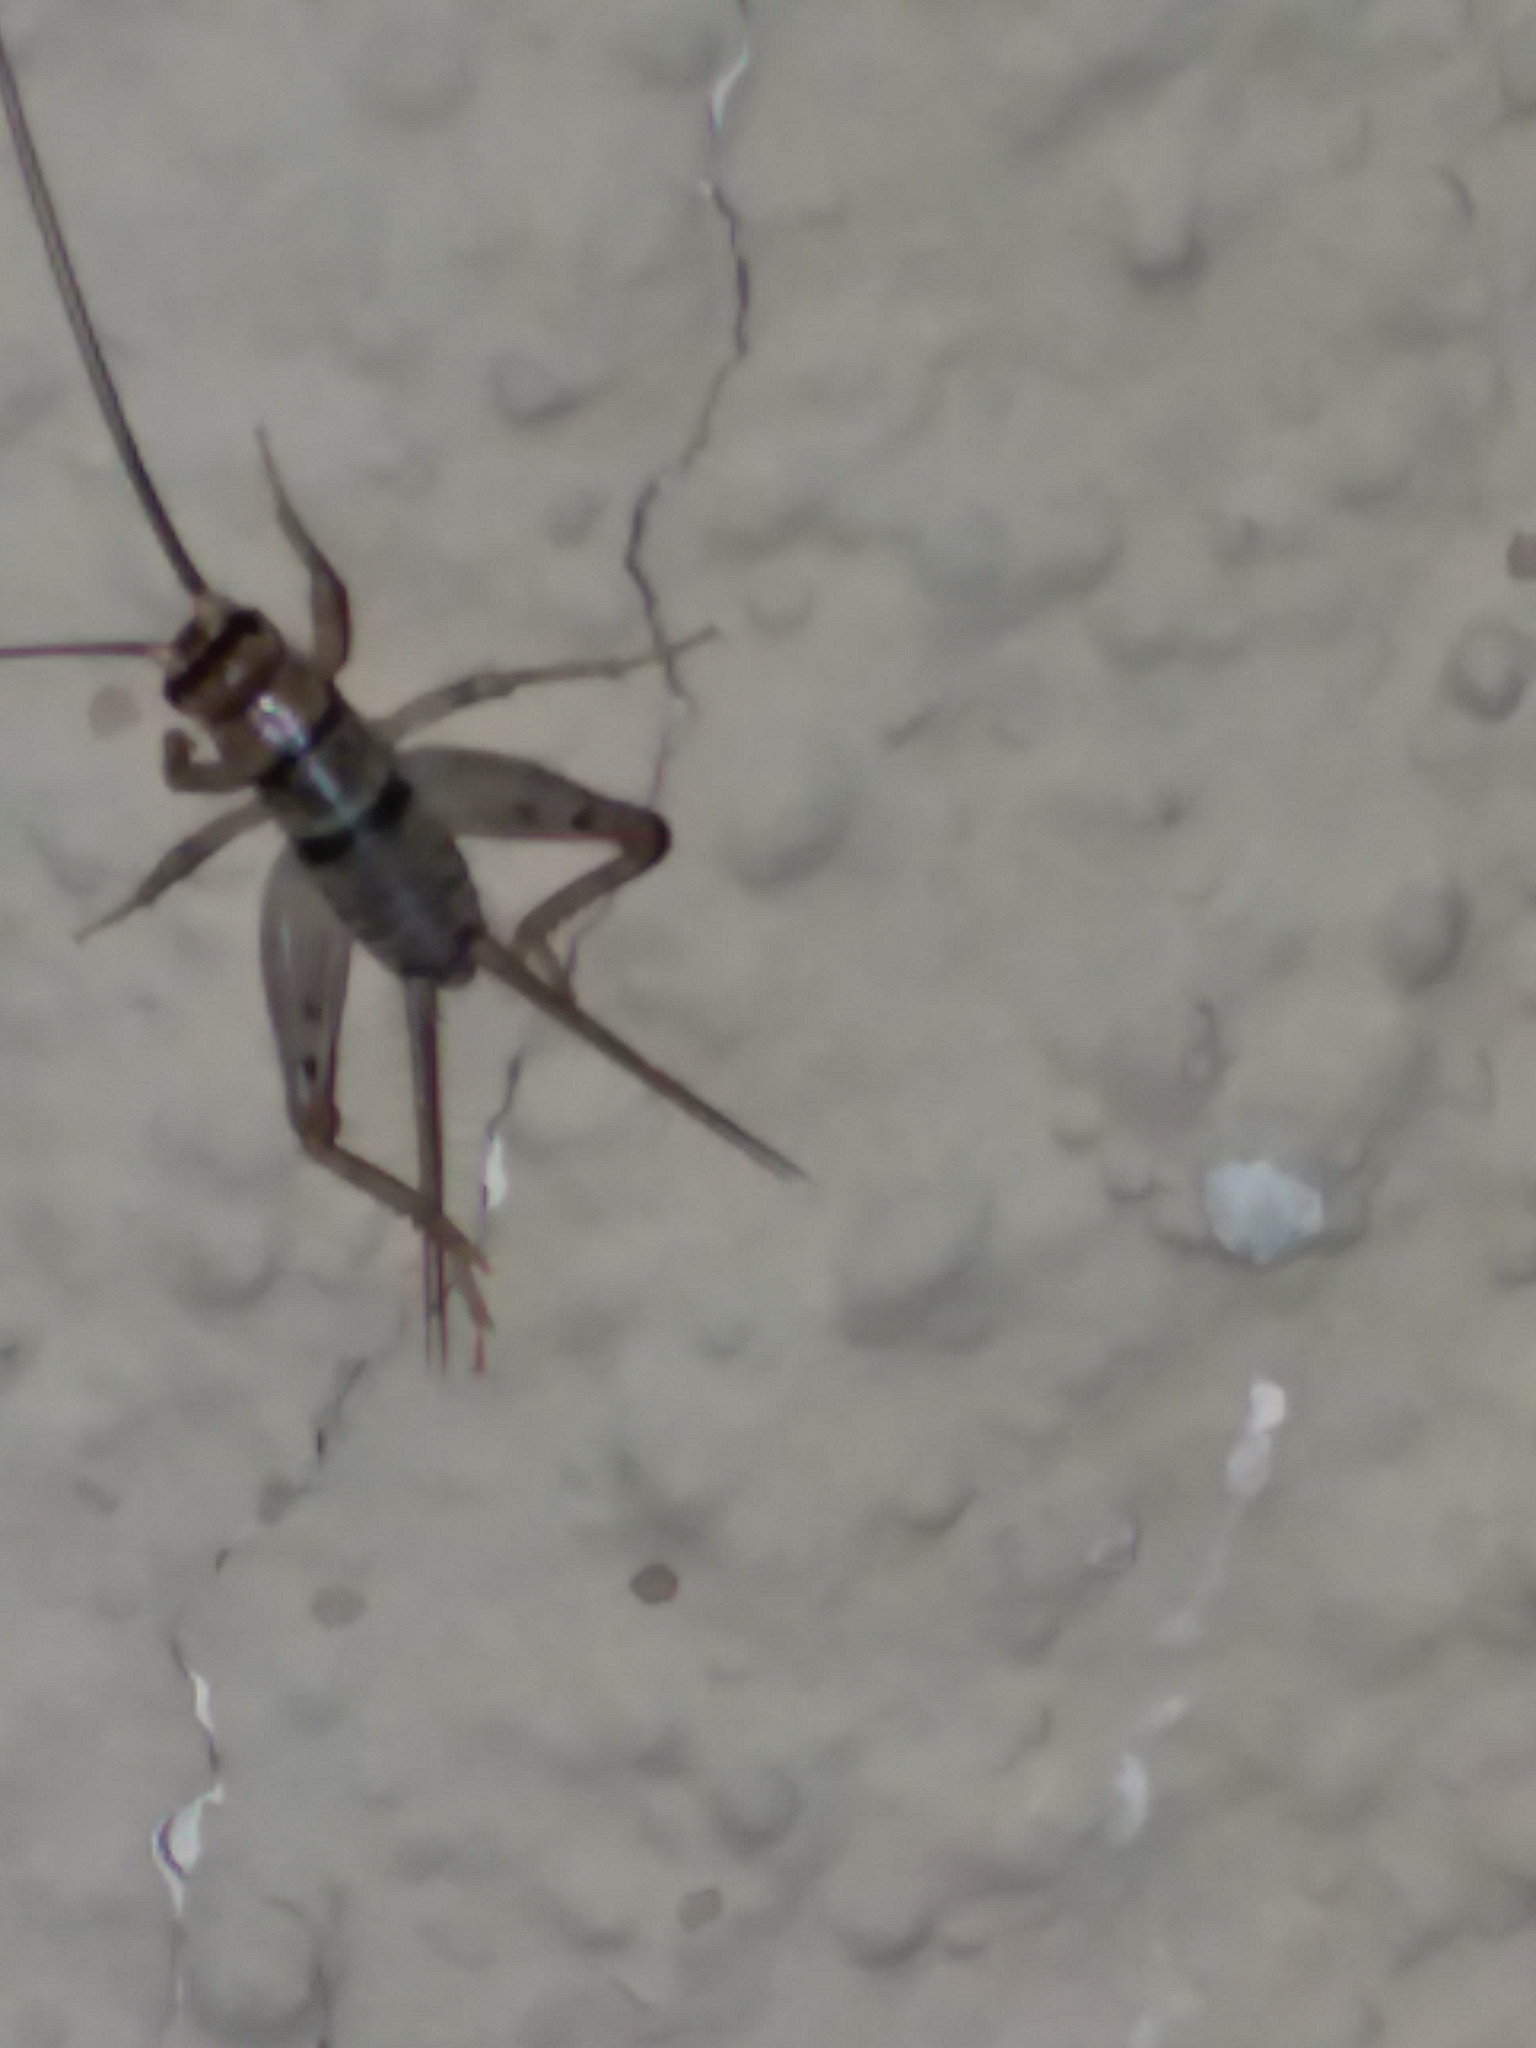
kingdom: Animalia
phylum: Arthropoda
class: Insecta
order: Orthoptera
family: Gryllidae
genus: Gryllodes
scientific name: Gryllodes sigillatus
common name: Tropical house cricket
